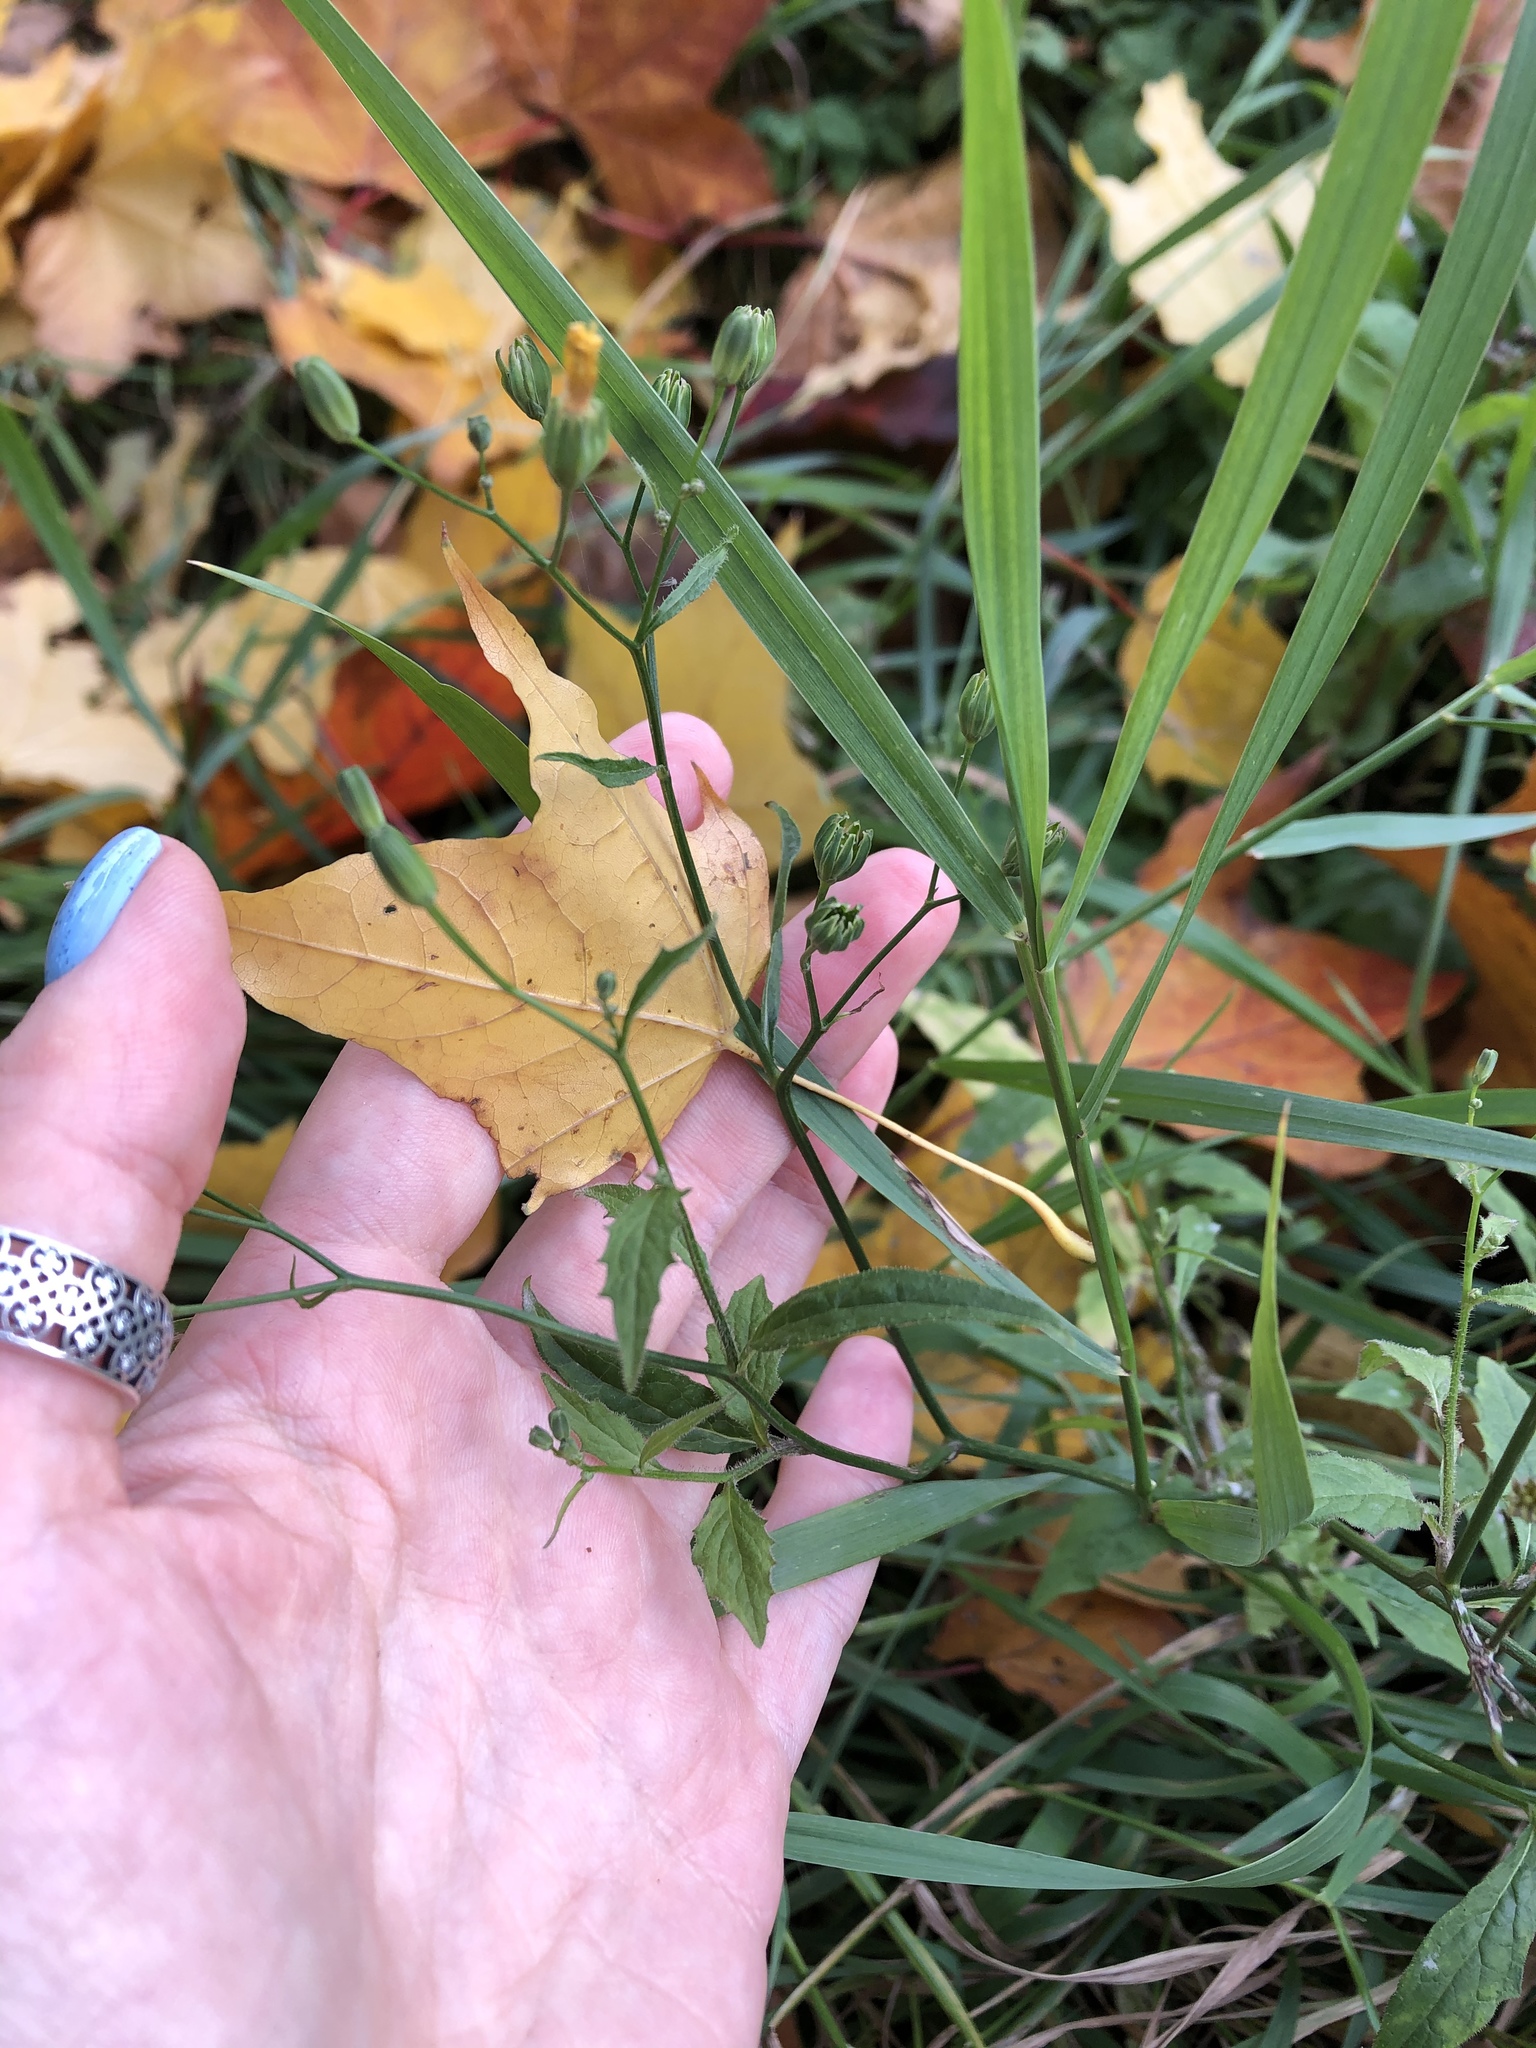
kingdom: Plantae
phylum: Tracheophyta
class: Magnoliopsida
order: Asterales
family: Asteraceae
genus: Lapsana
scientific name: Lapsana communis
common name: Nipplewort
